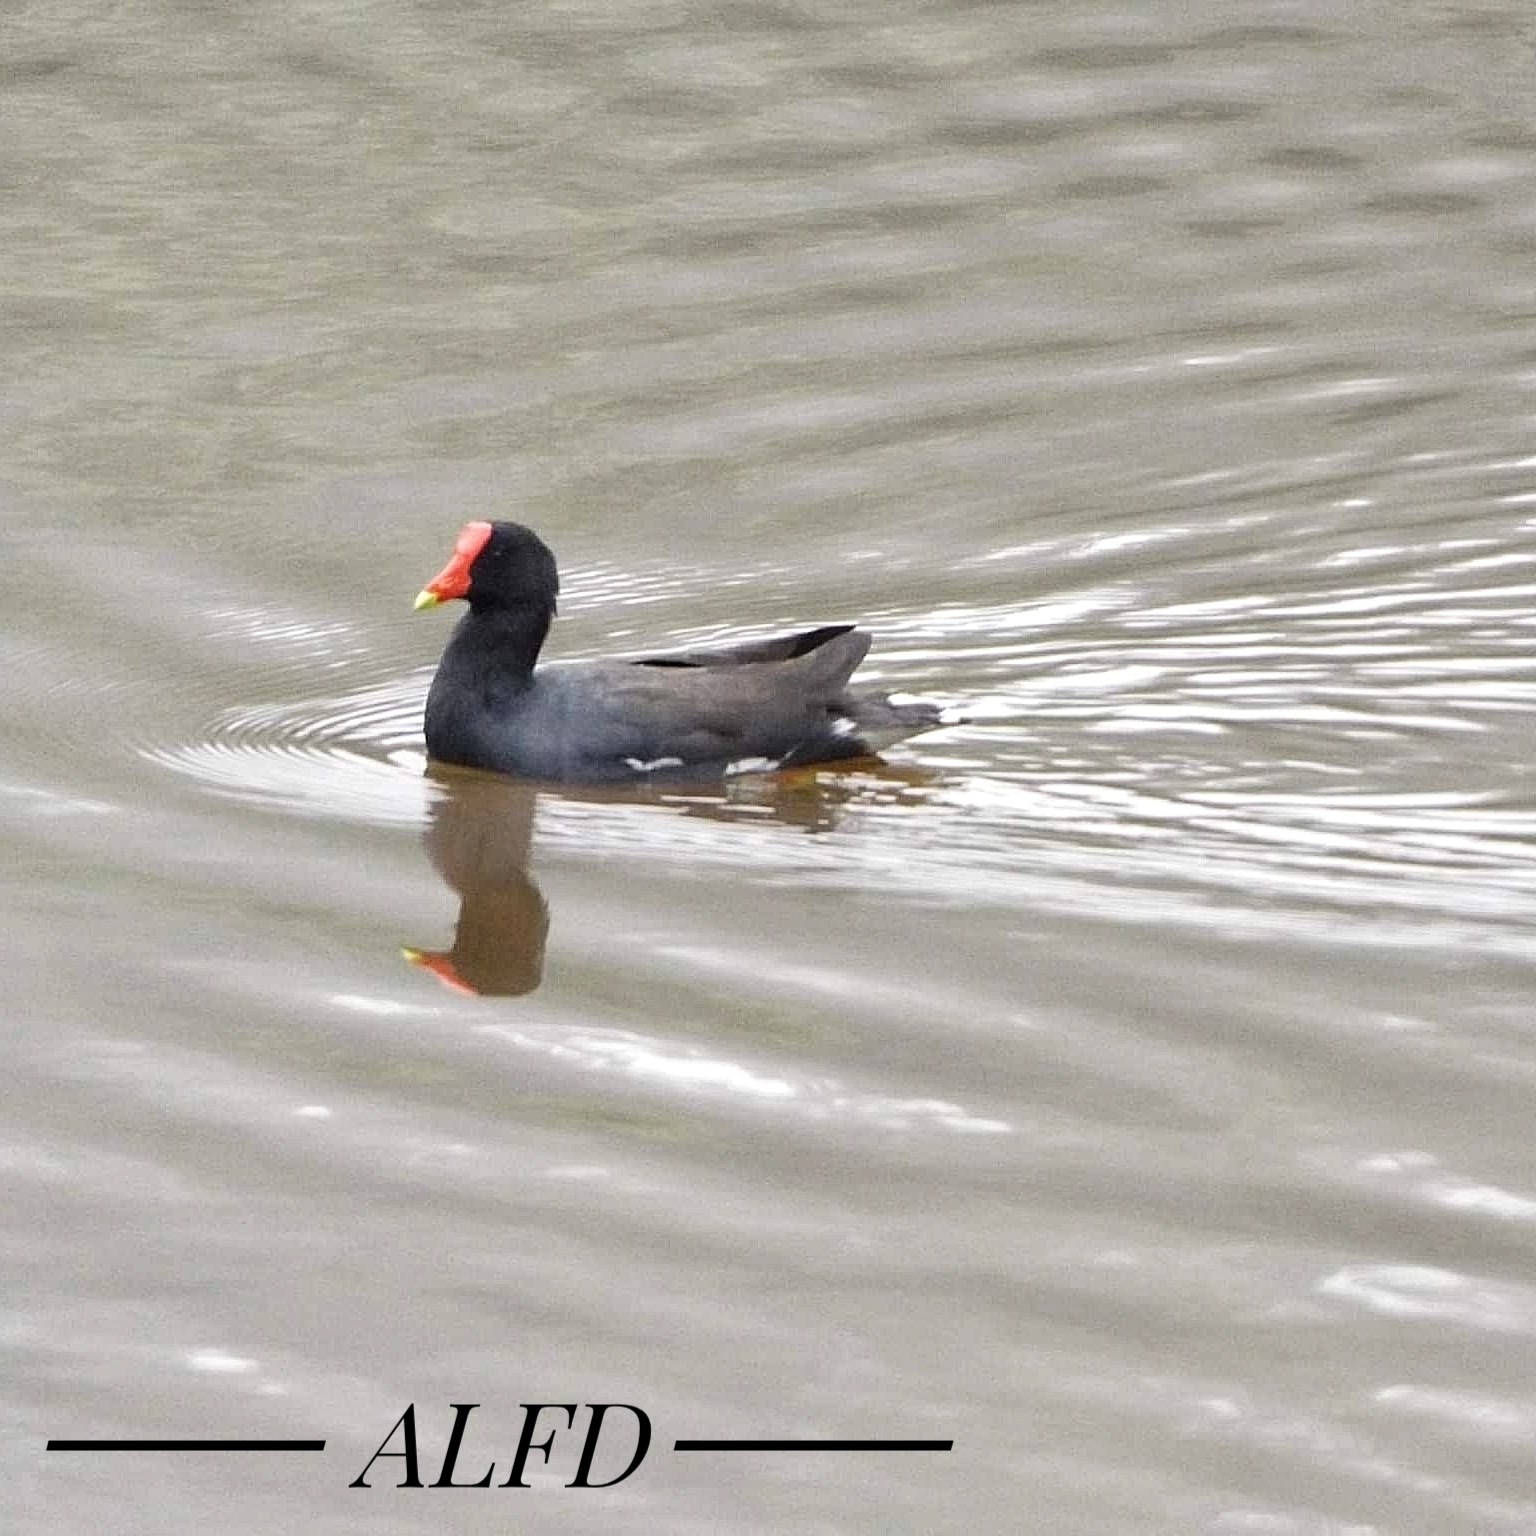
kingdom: Animalia
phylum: Chordata
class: Aves
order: Gruiformes
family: Rallidae
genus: Gallinula
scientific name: Gallinula chloropus
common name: Common moorhen
